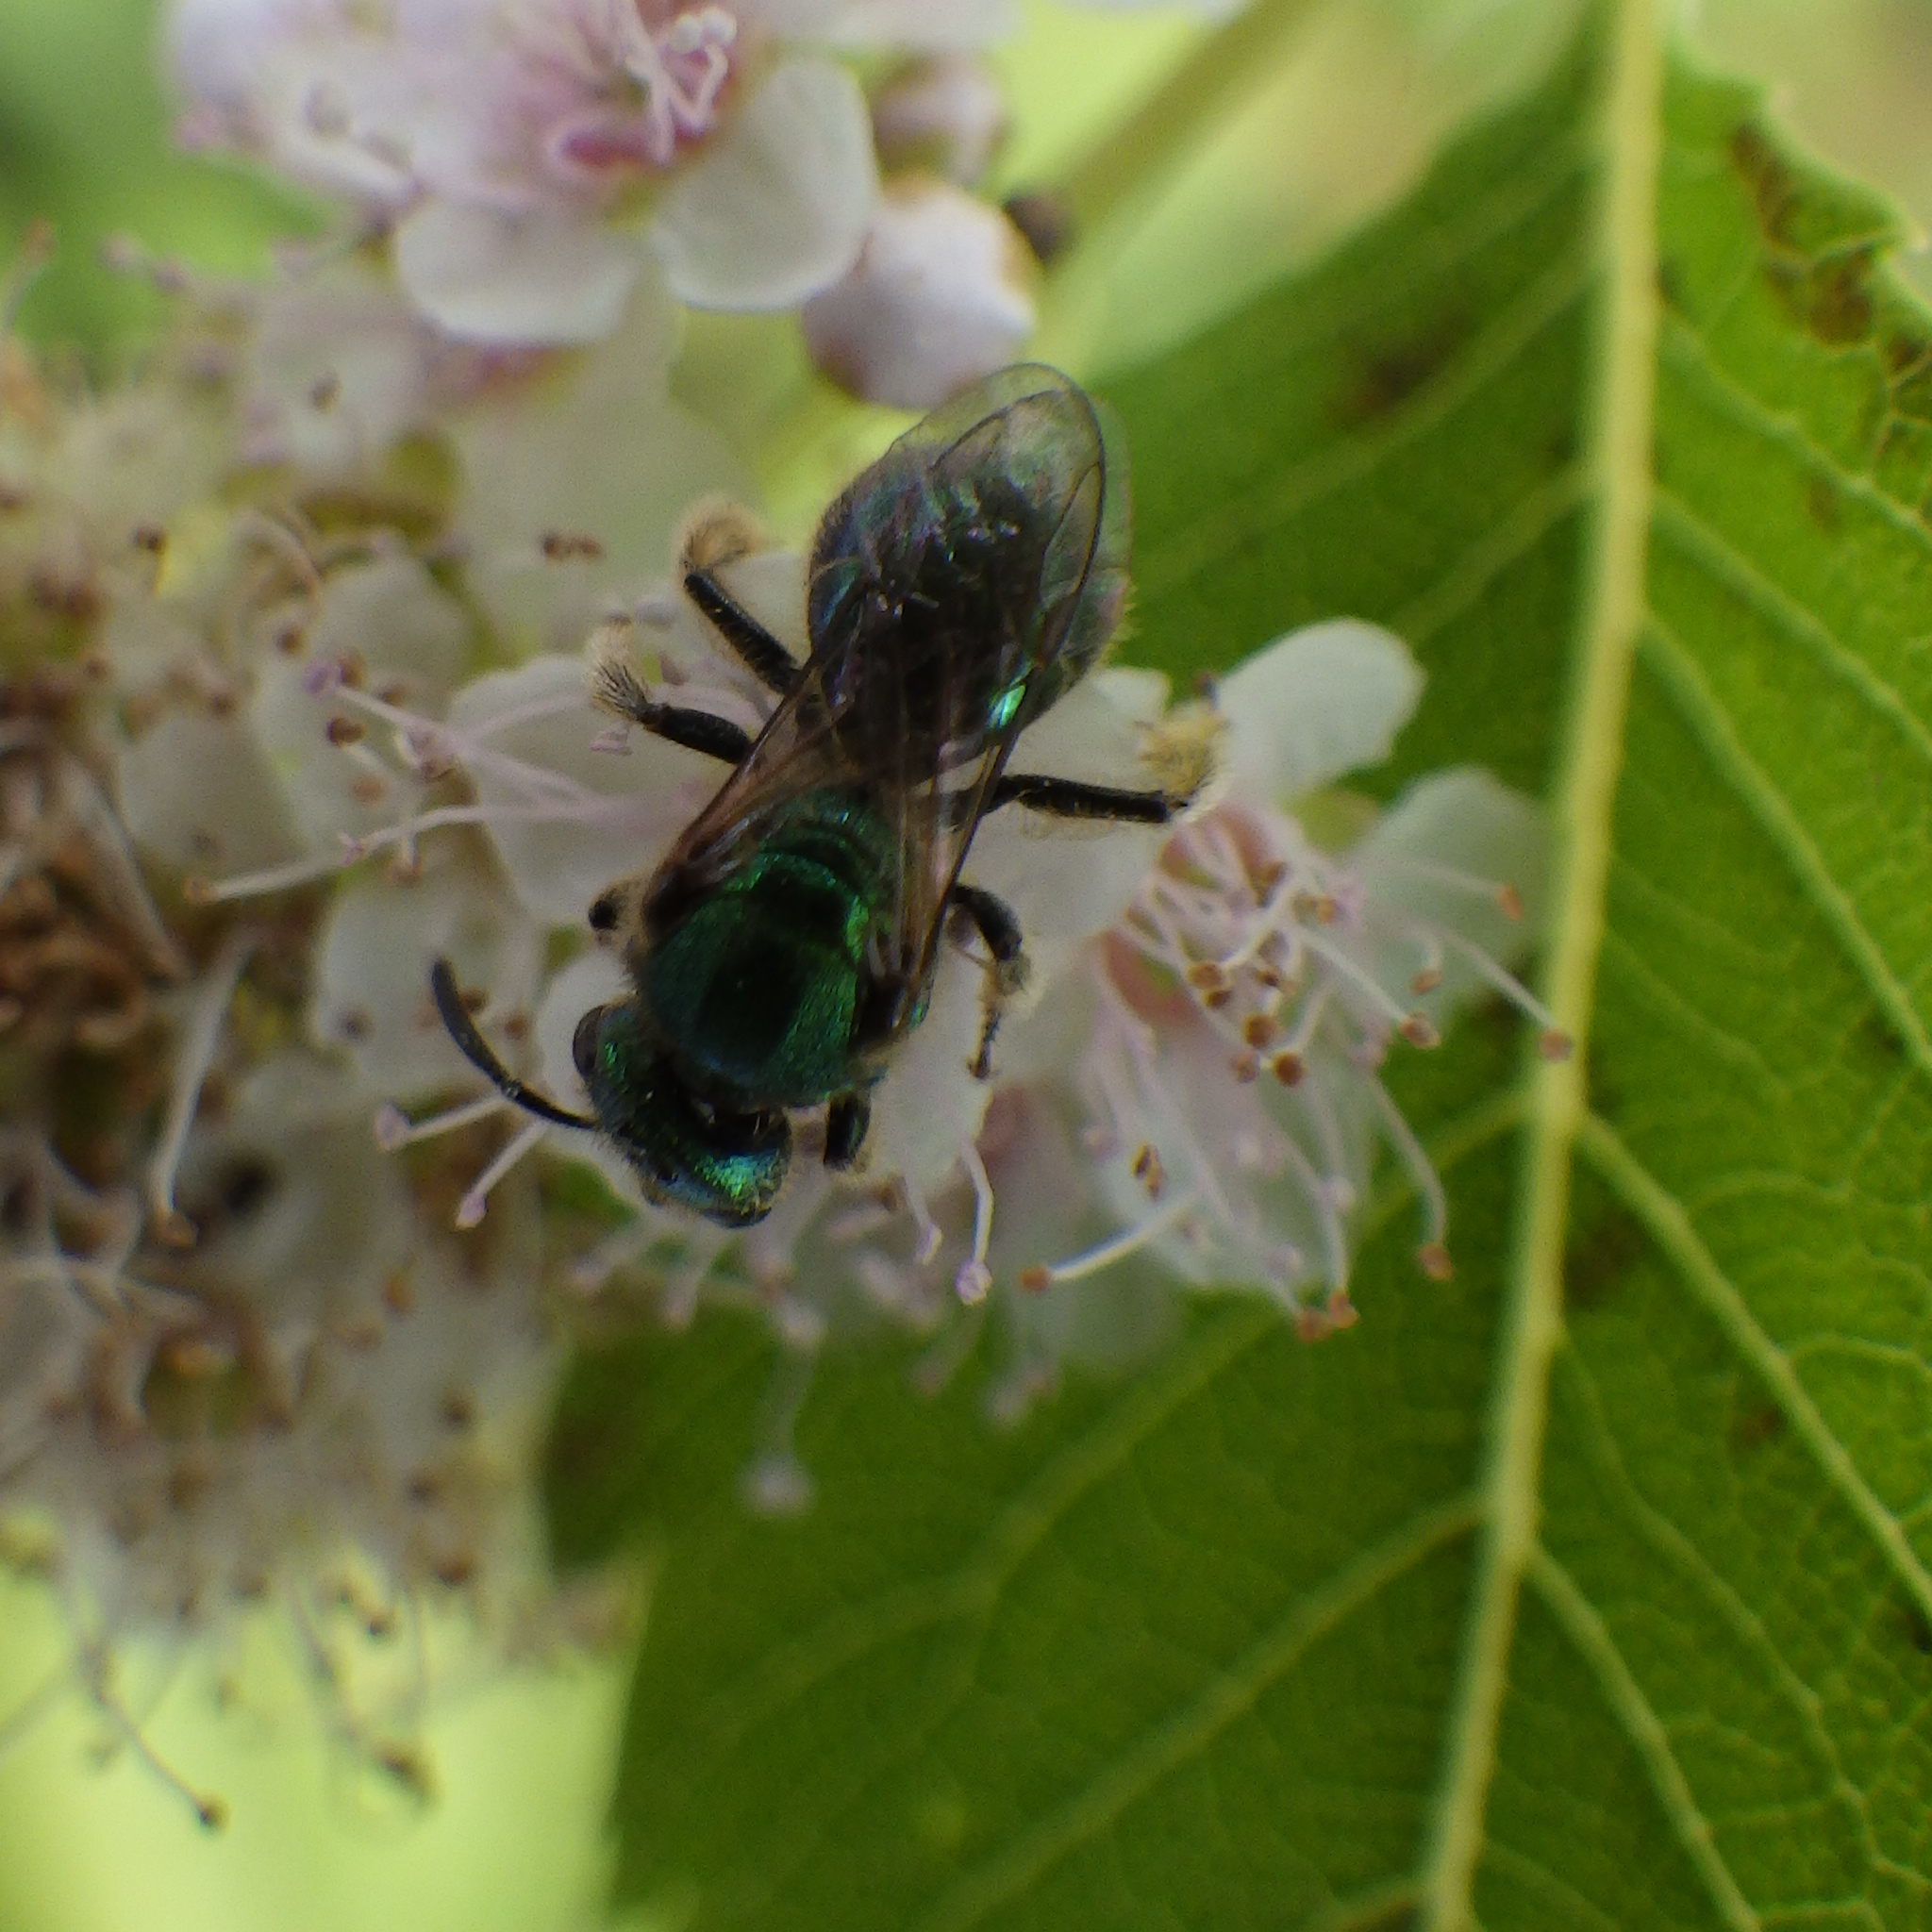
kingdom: Animalia
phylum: Arthropoda
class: Insecta
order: Hymenoptera
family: Halictidae
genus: Augochlorella
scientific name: Augochlorella aurata
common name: Golden sweat bee
